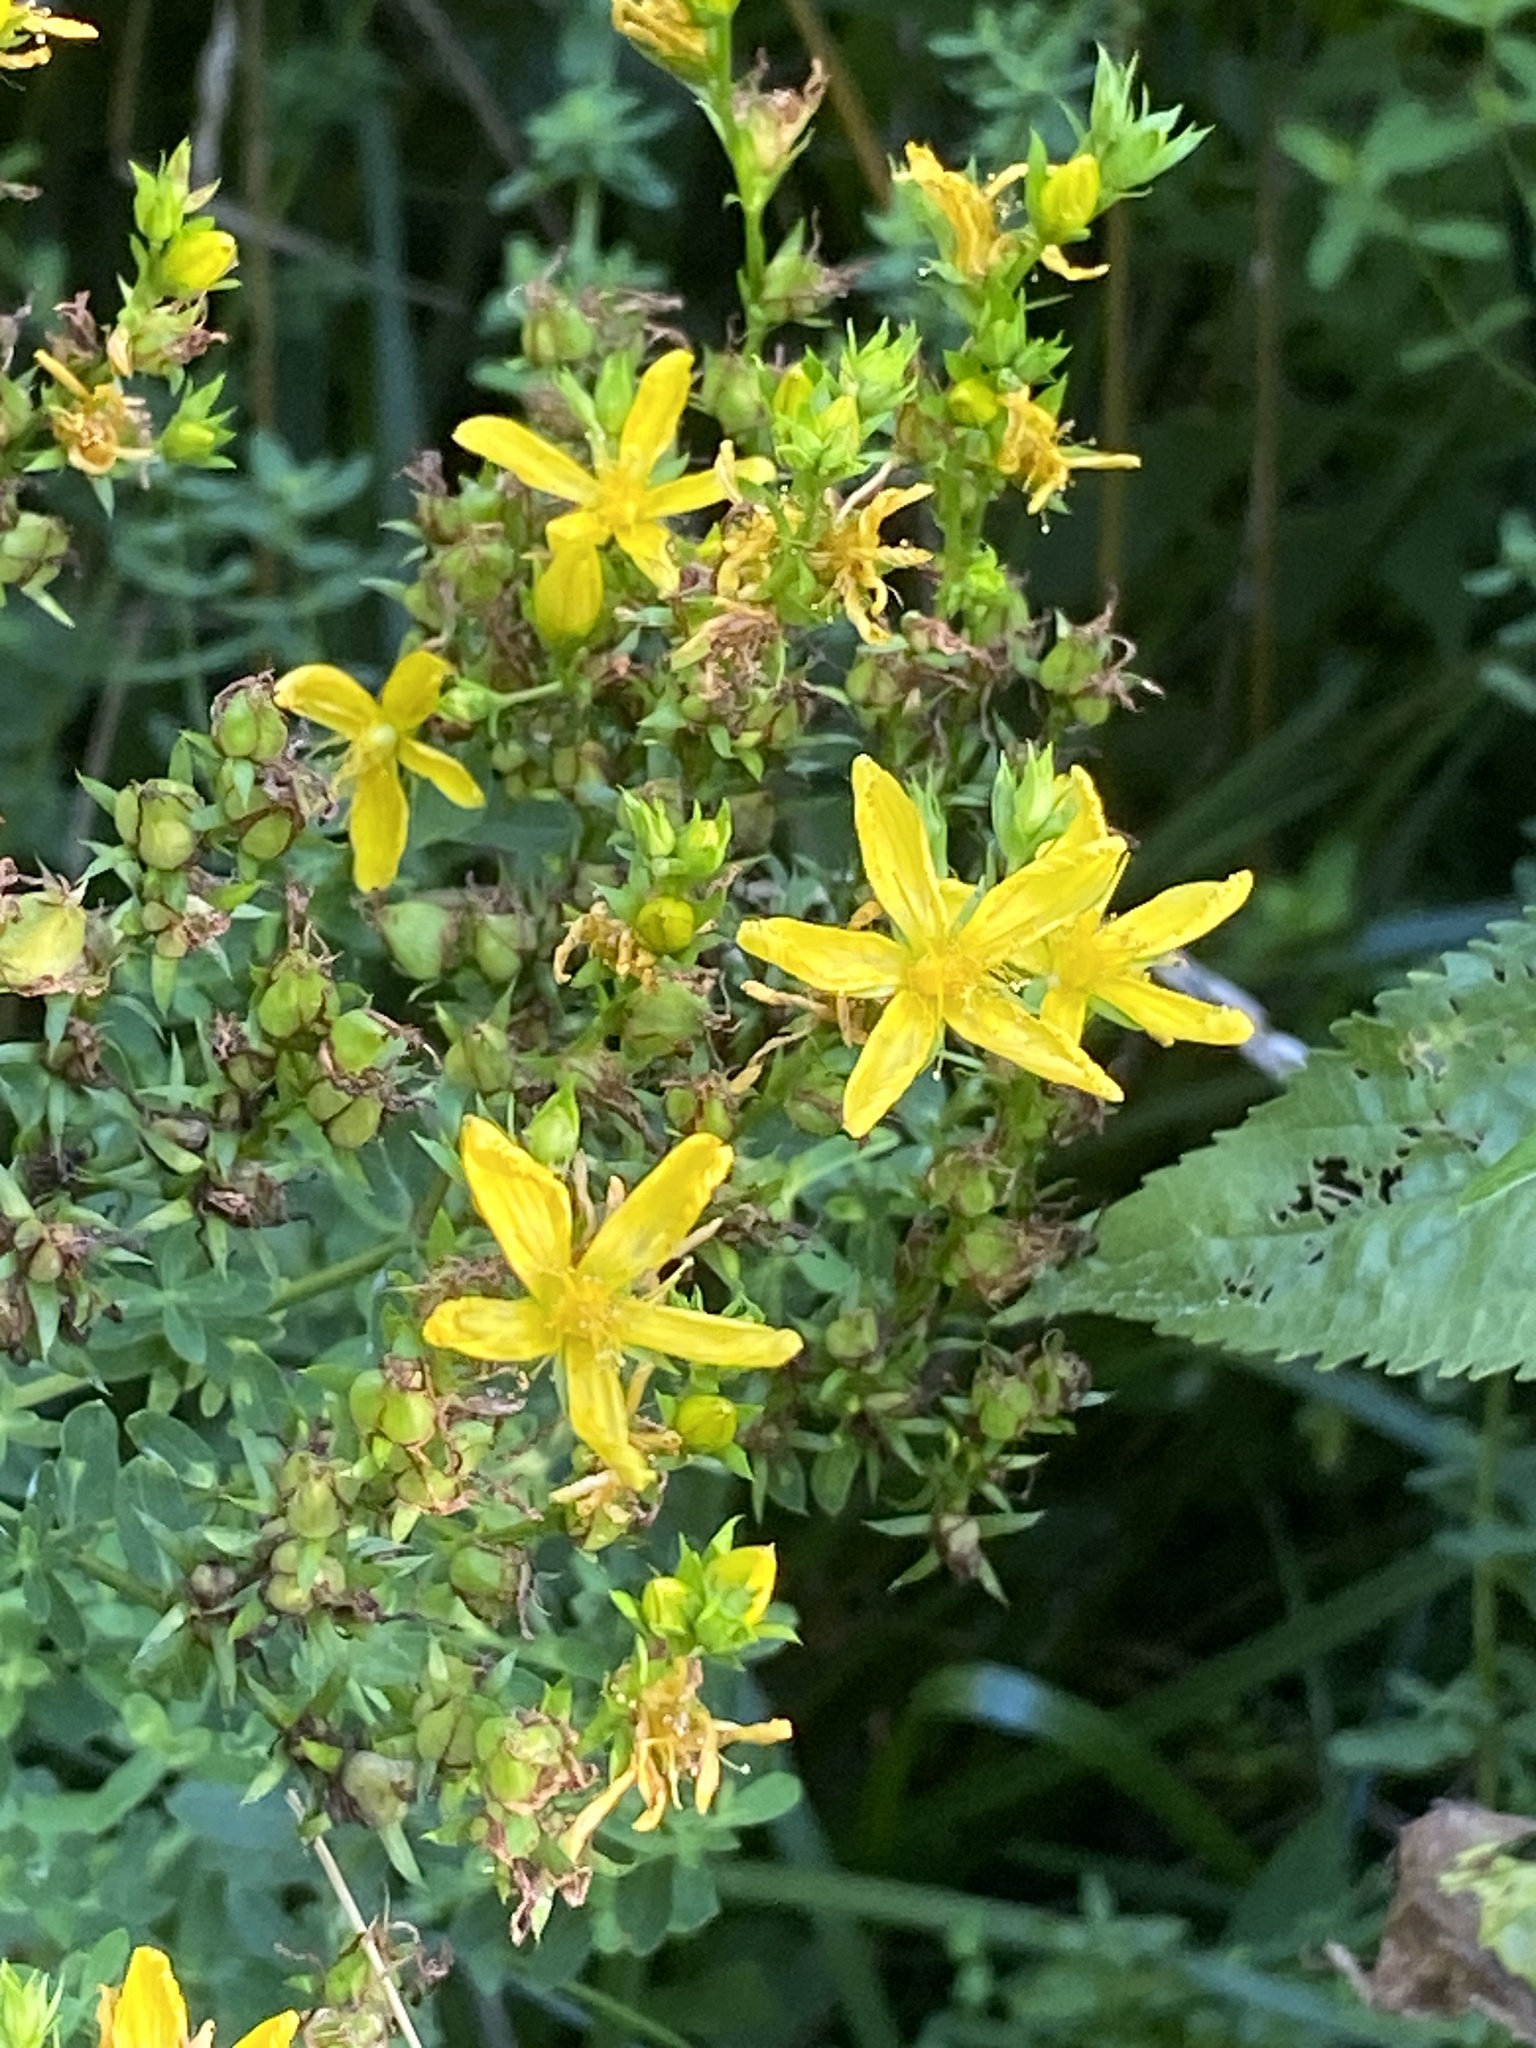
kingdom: Plantae
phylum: Tracheophyta
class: Magnoliopsida
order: Malpighiales
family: Hypericaceae
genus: Hypericum
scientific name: Hypericum perforatum
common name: Common st. johnswort
